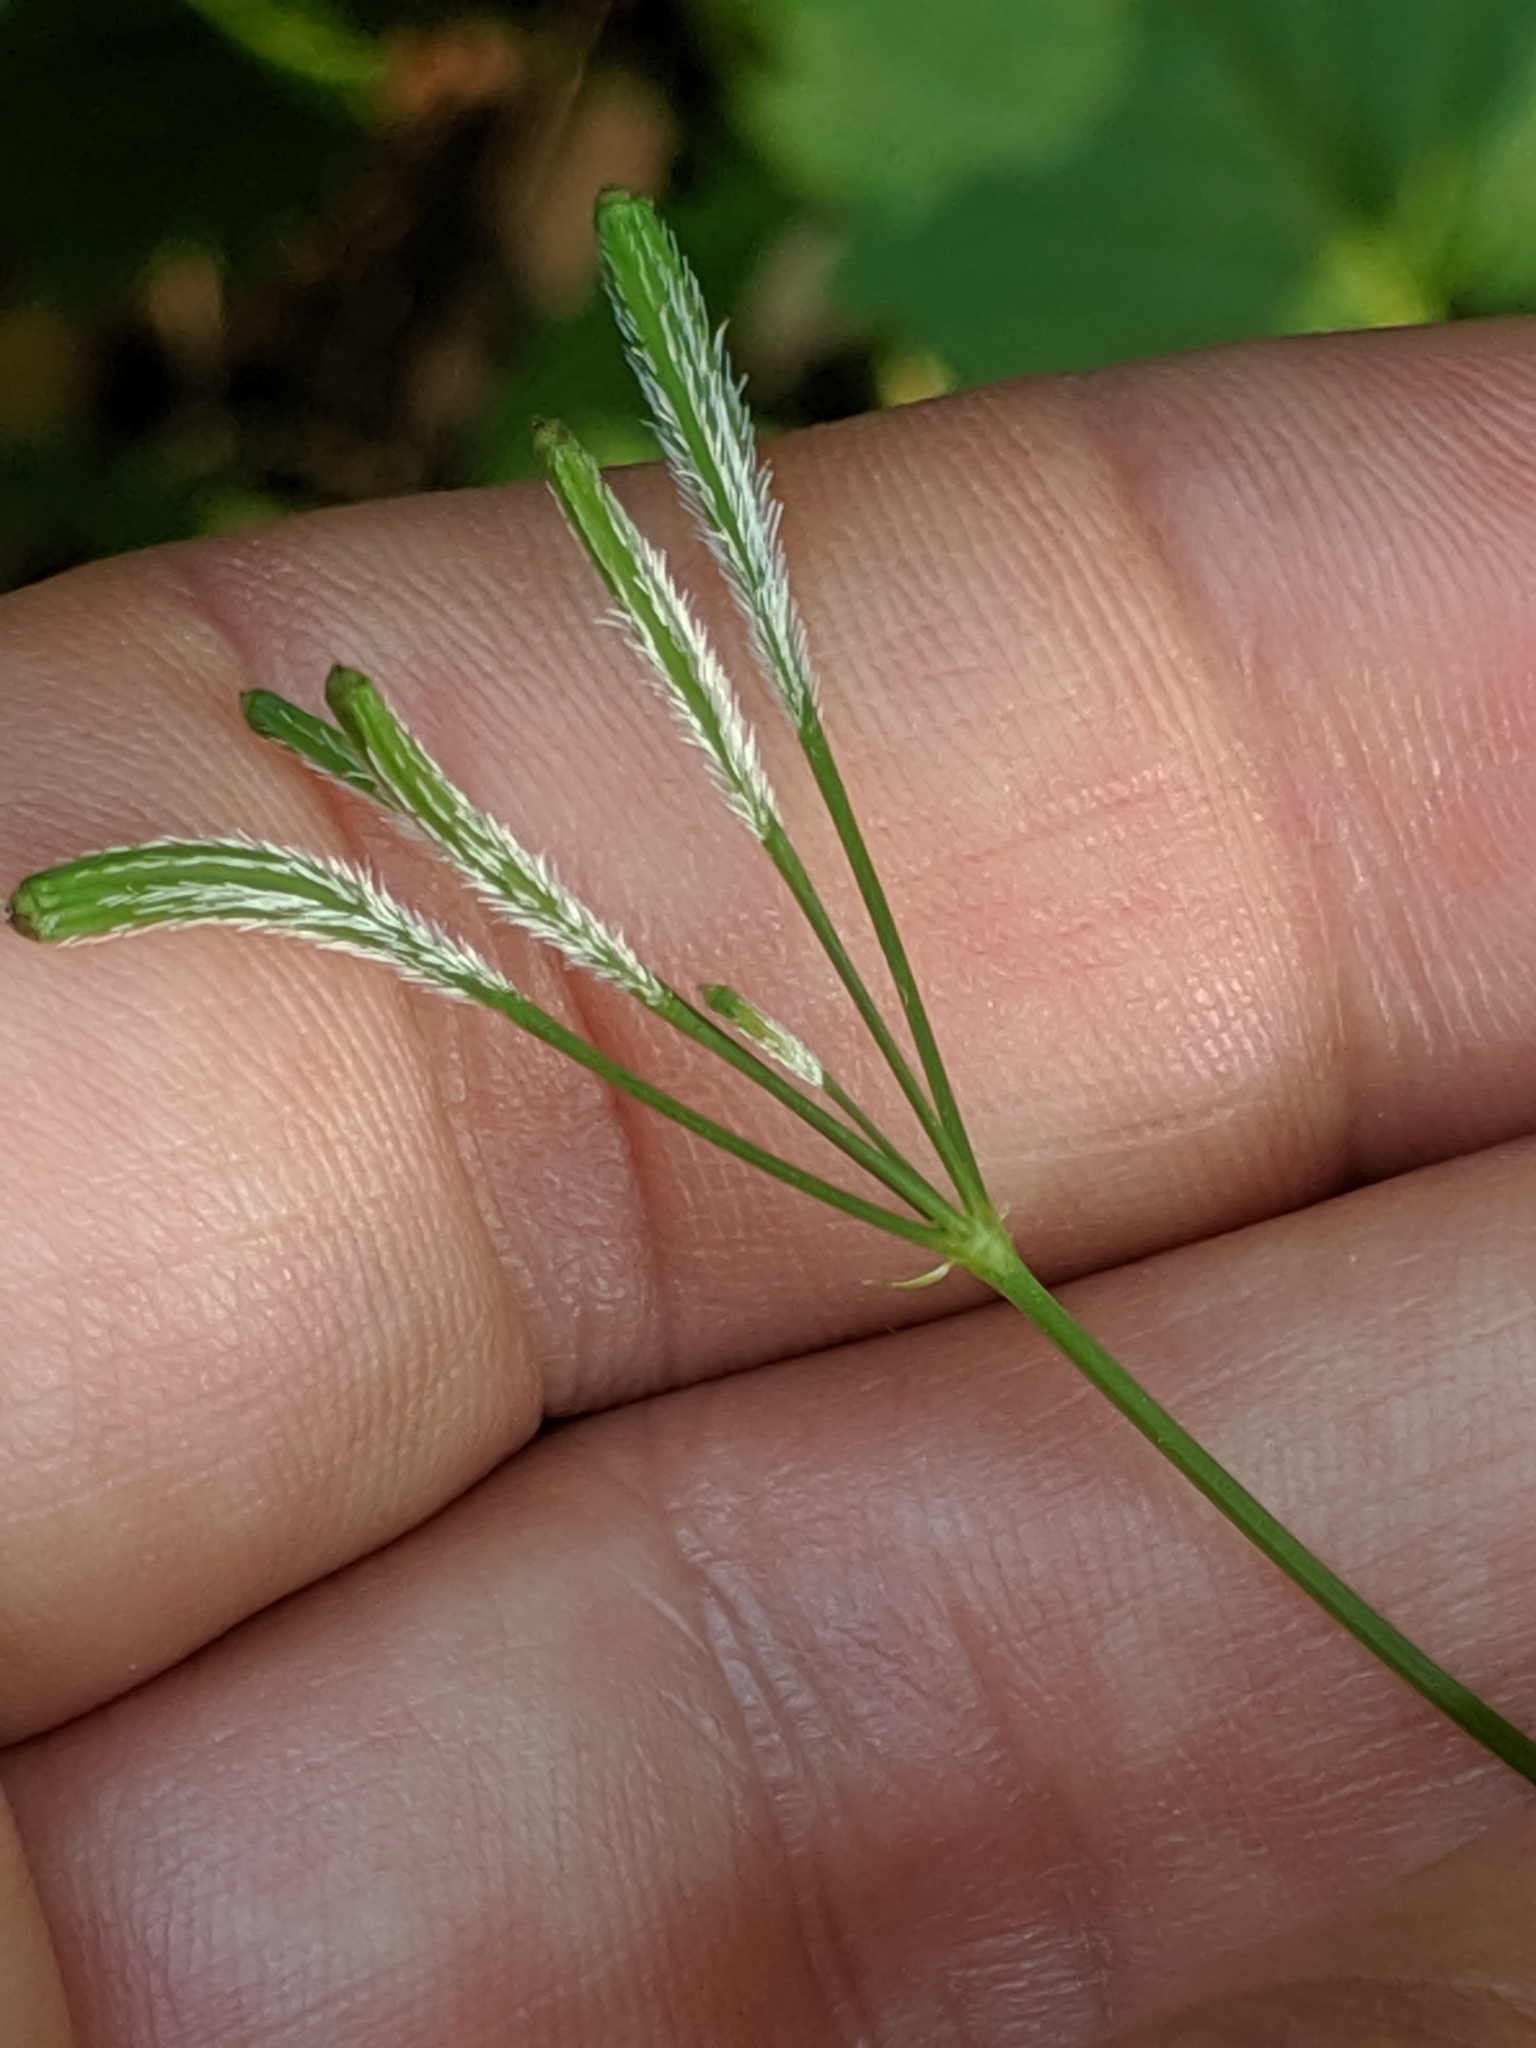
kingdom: Plantae
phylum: Tracheophyta
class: Magnoliopsida
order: Apiales
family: Apiaceae
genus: Osmorhiza
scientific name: Osmorhiza berteroi
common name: Mountain sweet cicely
